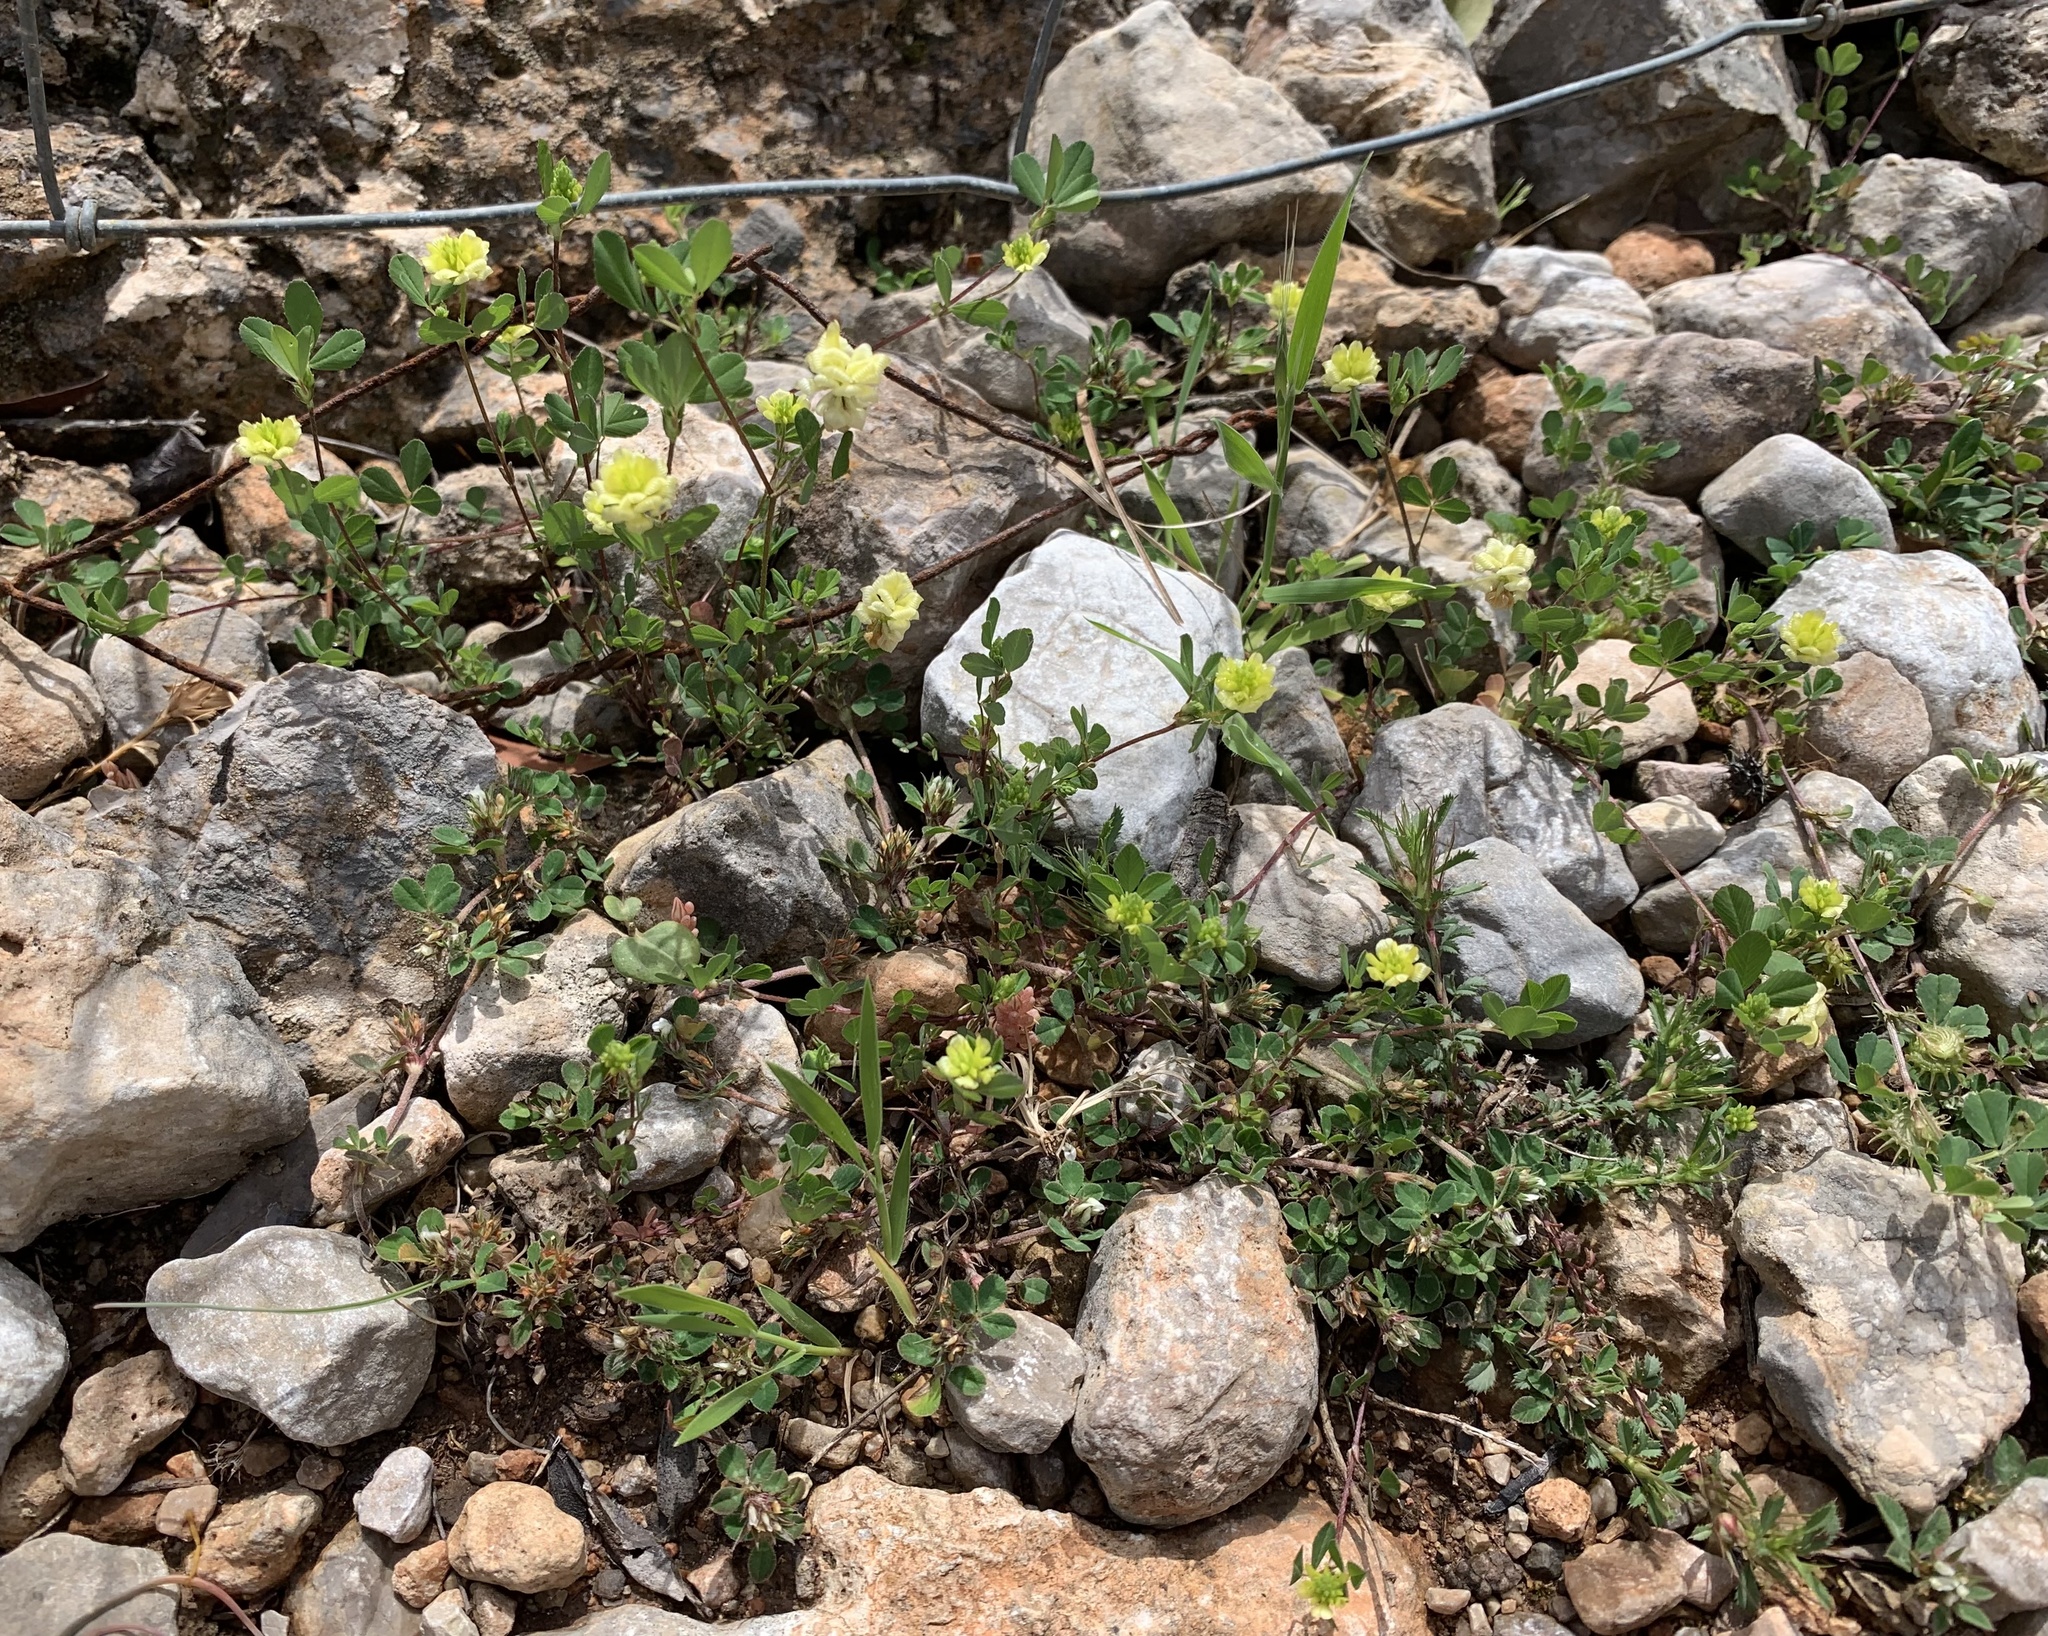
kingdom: Plantae
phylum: Tracheophyta
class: Magnoliopsida
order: Fabales
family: Fabaceae
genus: Trifolium
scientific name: Trifolium campestre
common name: Field clover
